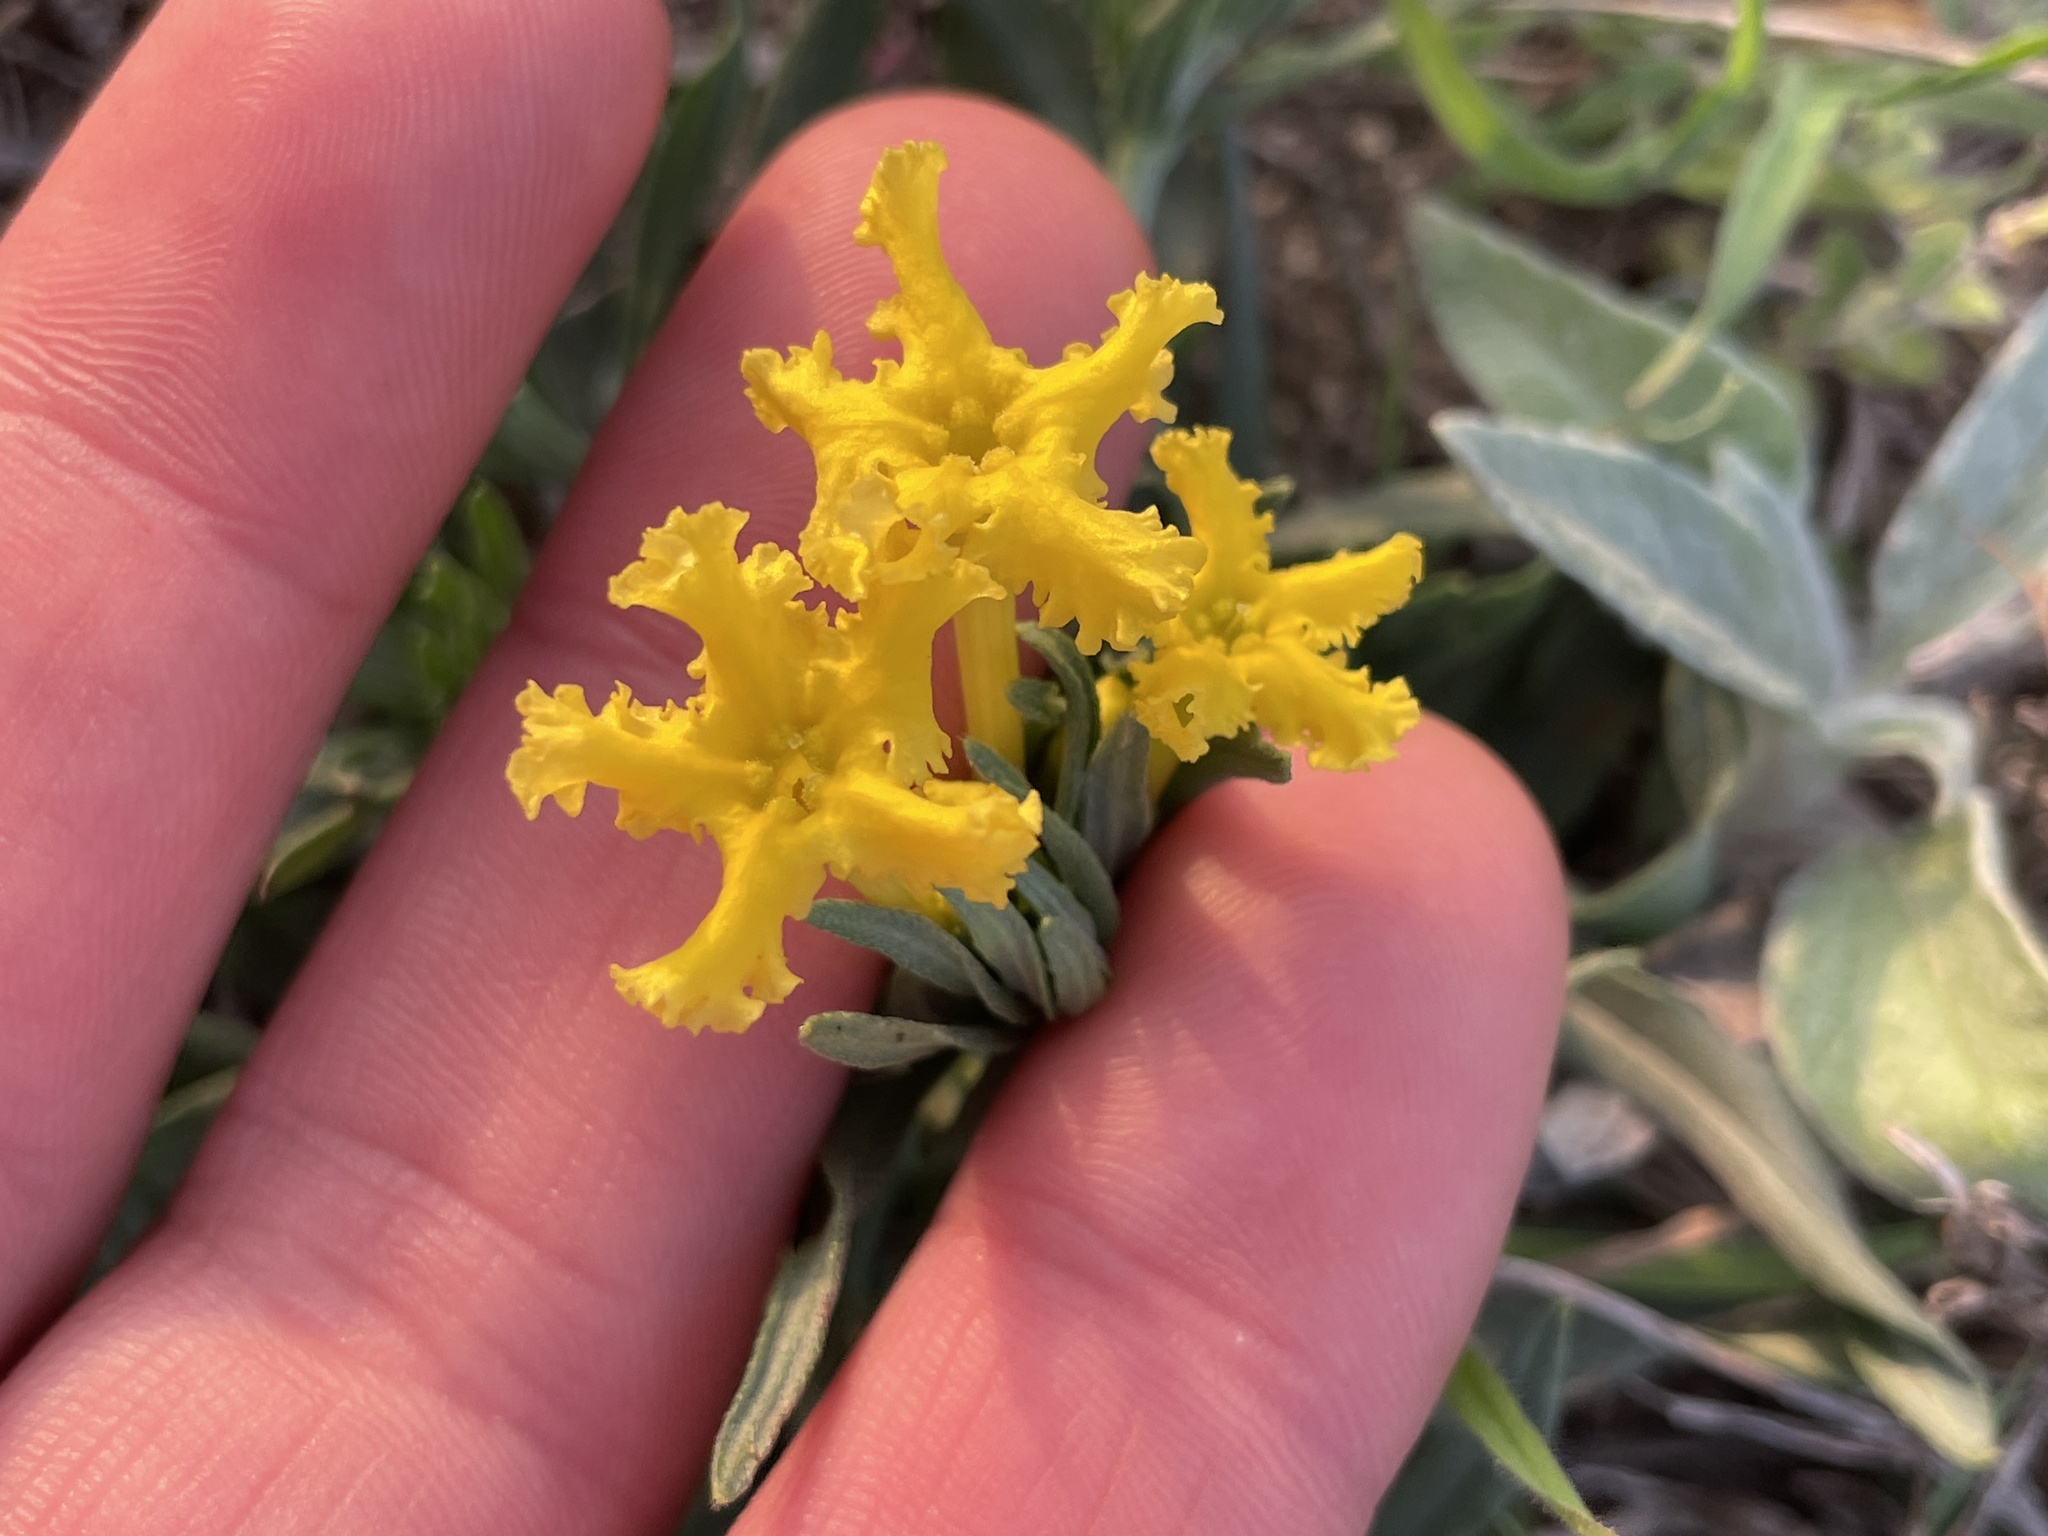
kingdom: Plantae
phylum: Tracheophyta
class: Magnoliopsida
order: Boraginales
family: Boraginaceae
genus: Lithospermum
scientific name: Lithospermum incisum
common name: Fringed gromwell
